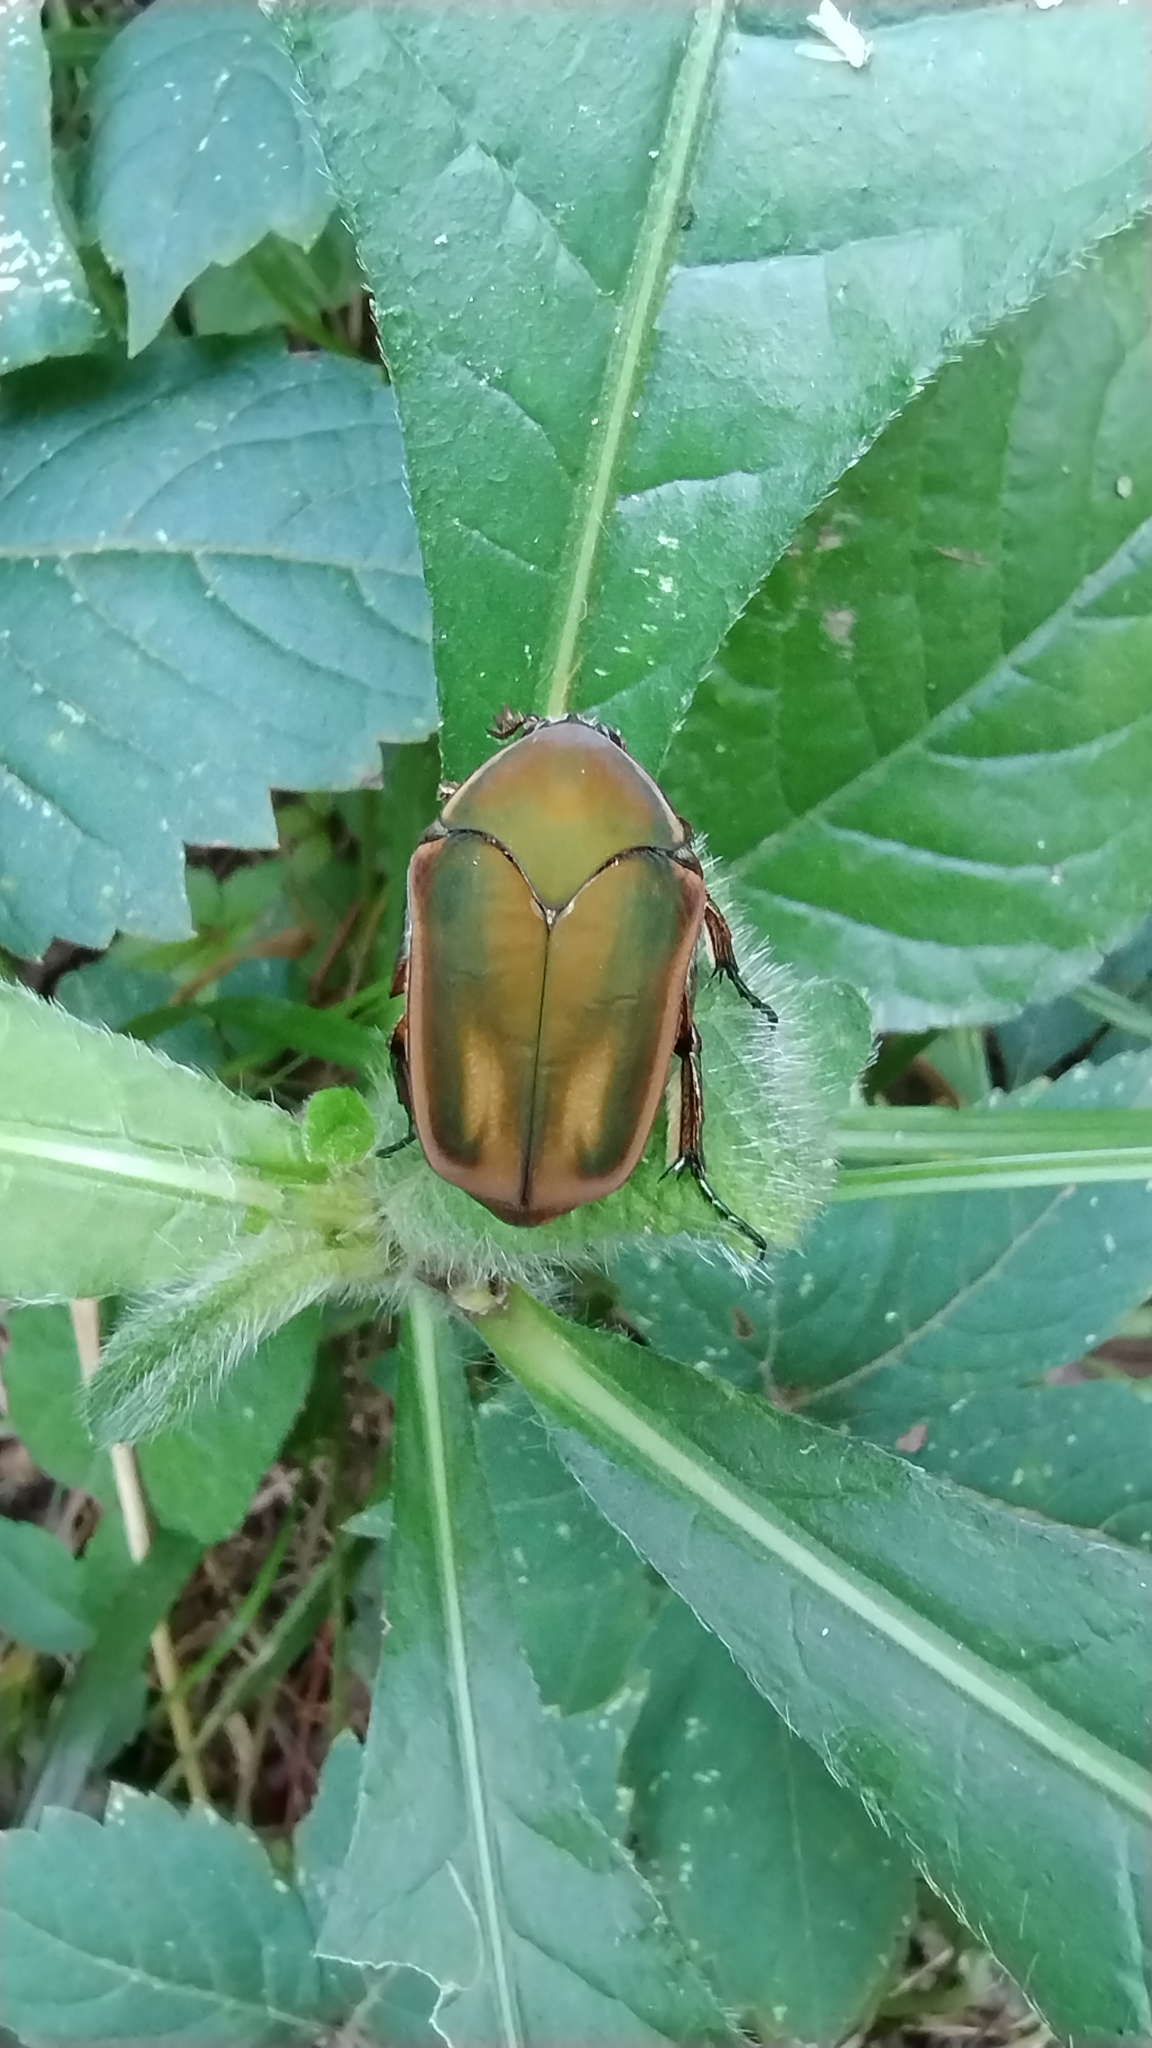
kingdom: Animalia
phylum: Arthropoda
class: Insecta
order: Coleoptera
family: Scarabaeidae
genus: Cotinis
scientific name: Cotinis nitida
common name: Common green june beetle
